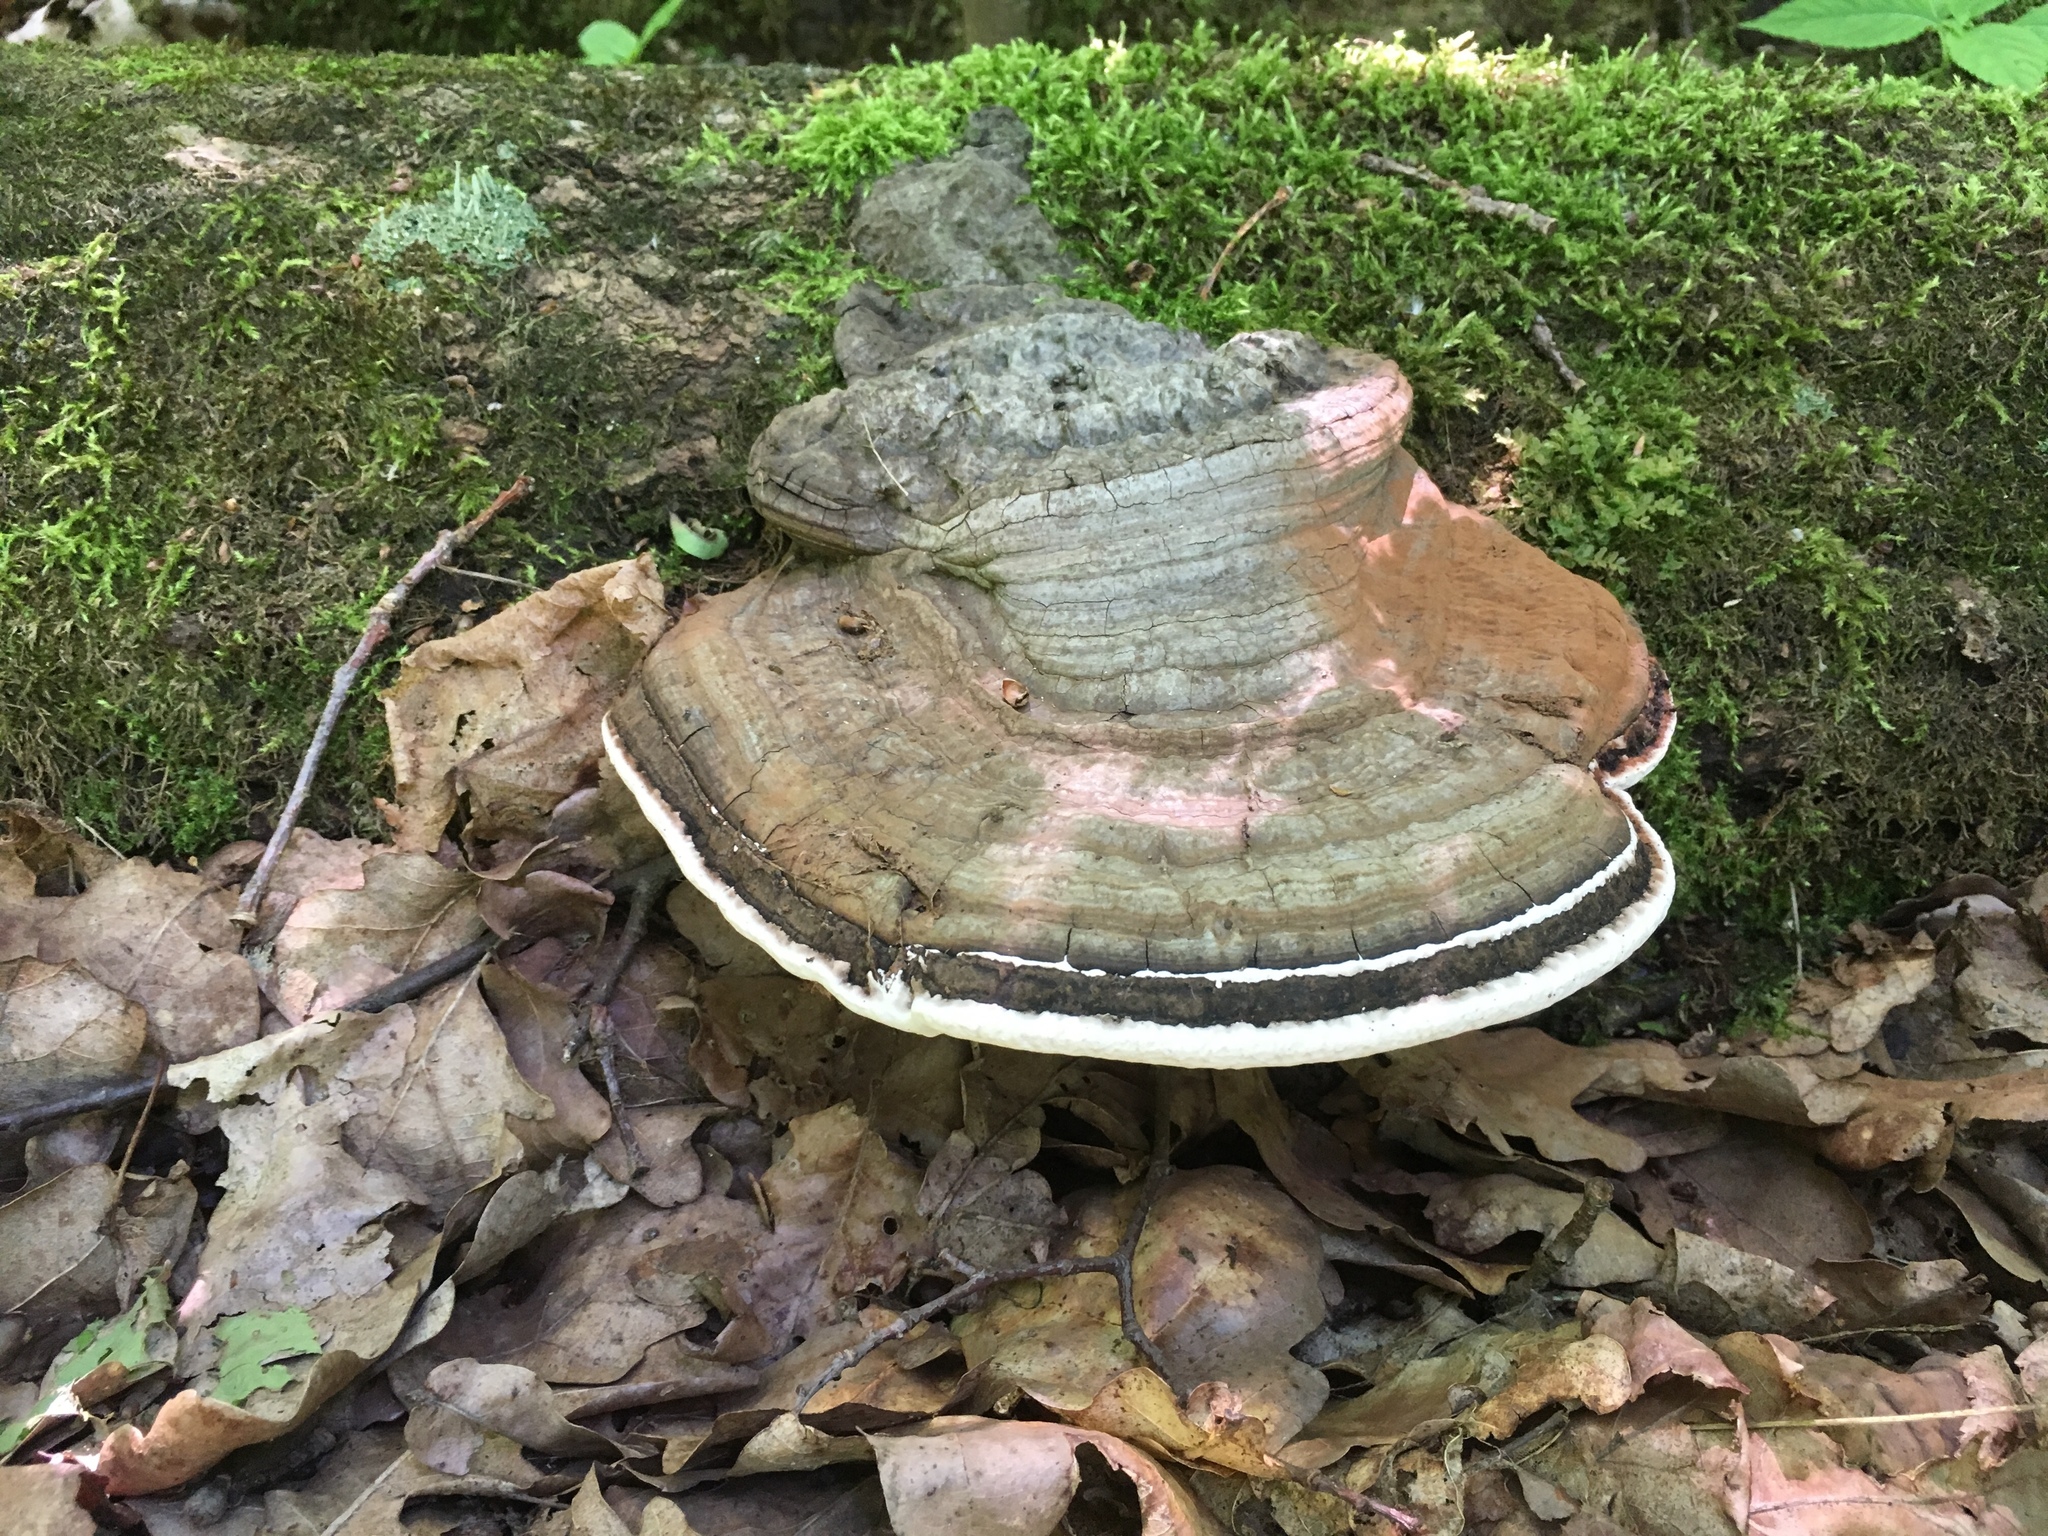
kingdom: Fungi
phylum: Basidiomycota
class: Agaricomycetes
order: Polyporales
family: Polyporaceae
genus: Ganoderma
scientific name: Ganoderma applanatum
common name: Artist's bracket
